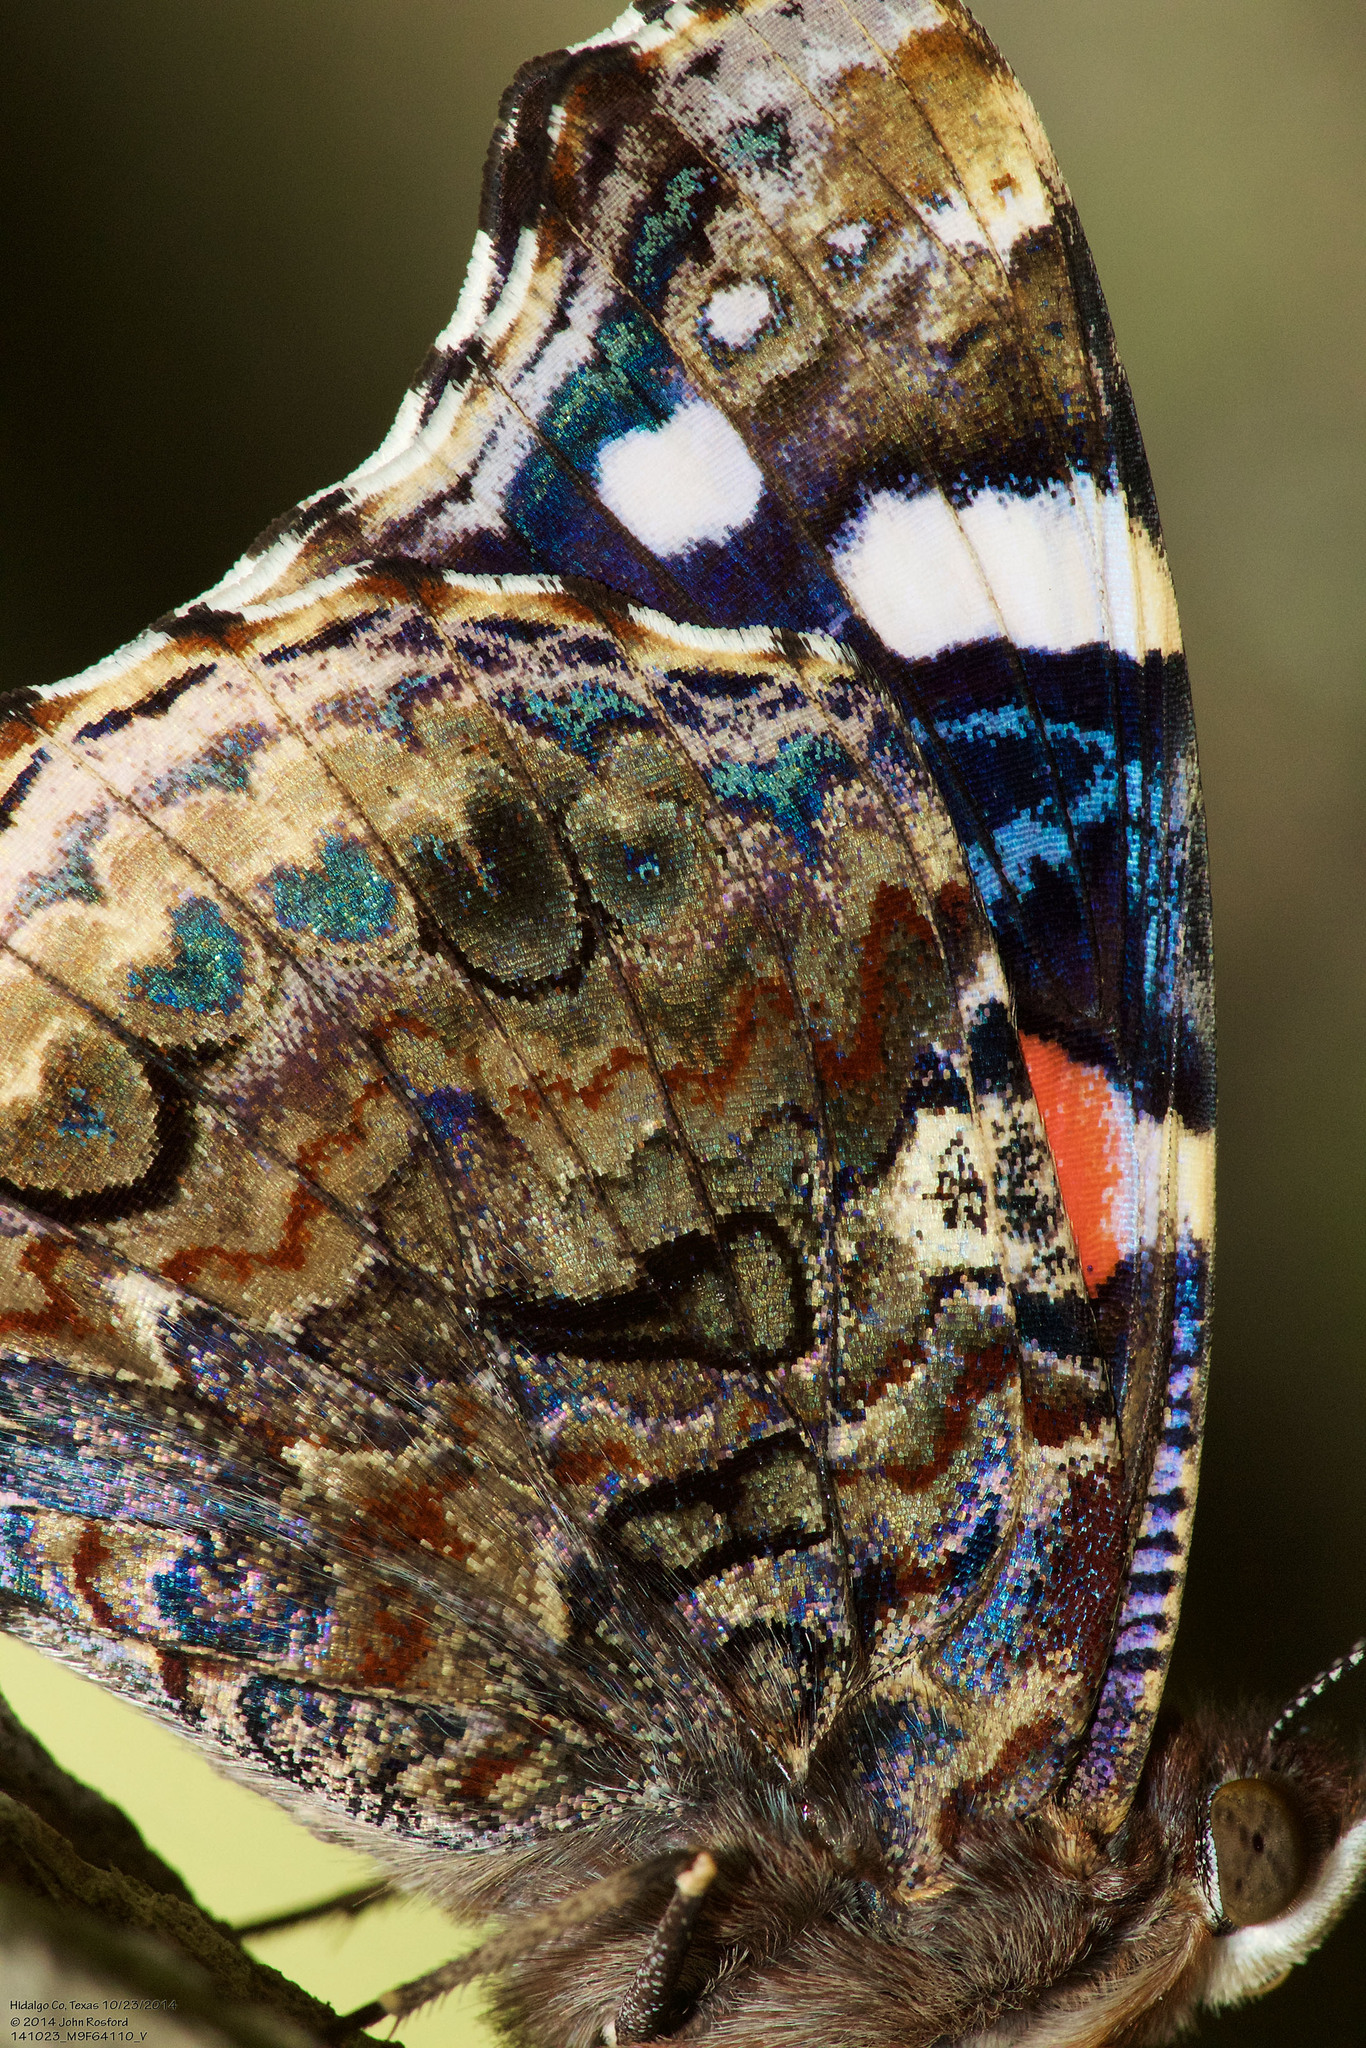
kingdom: Animalia
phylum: Arthropoda
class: Insecta
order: Lepidoptera
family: Nymphalidae
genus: Vanessa
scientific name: Vanessa atalanta
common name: Red admiral
